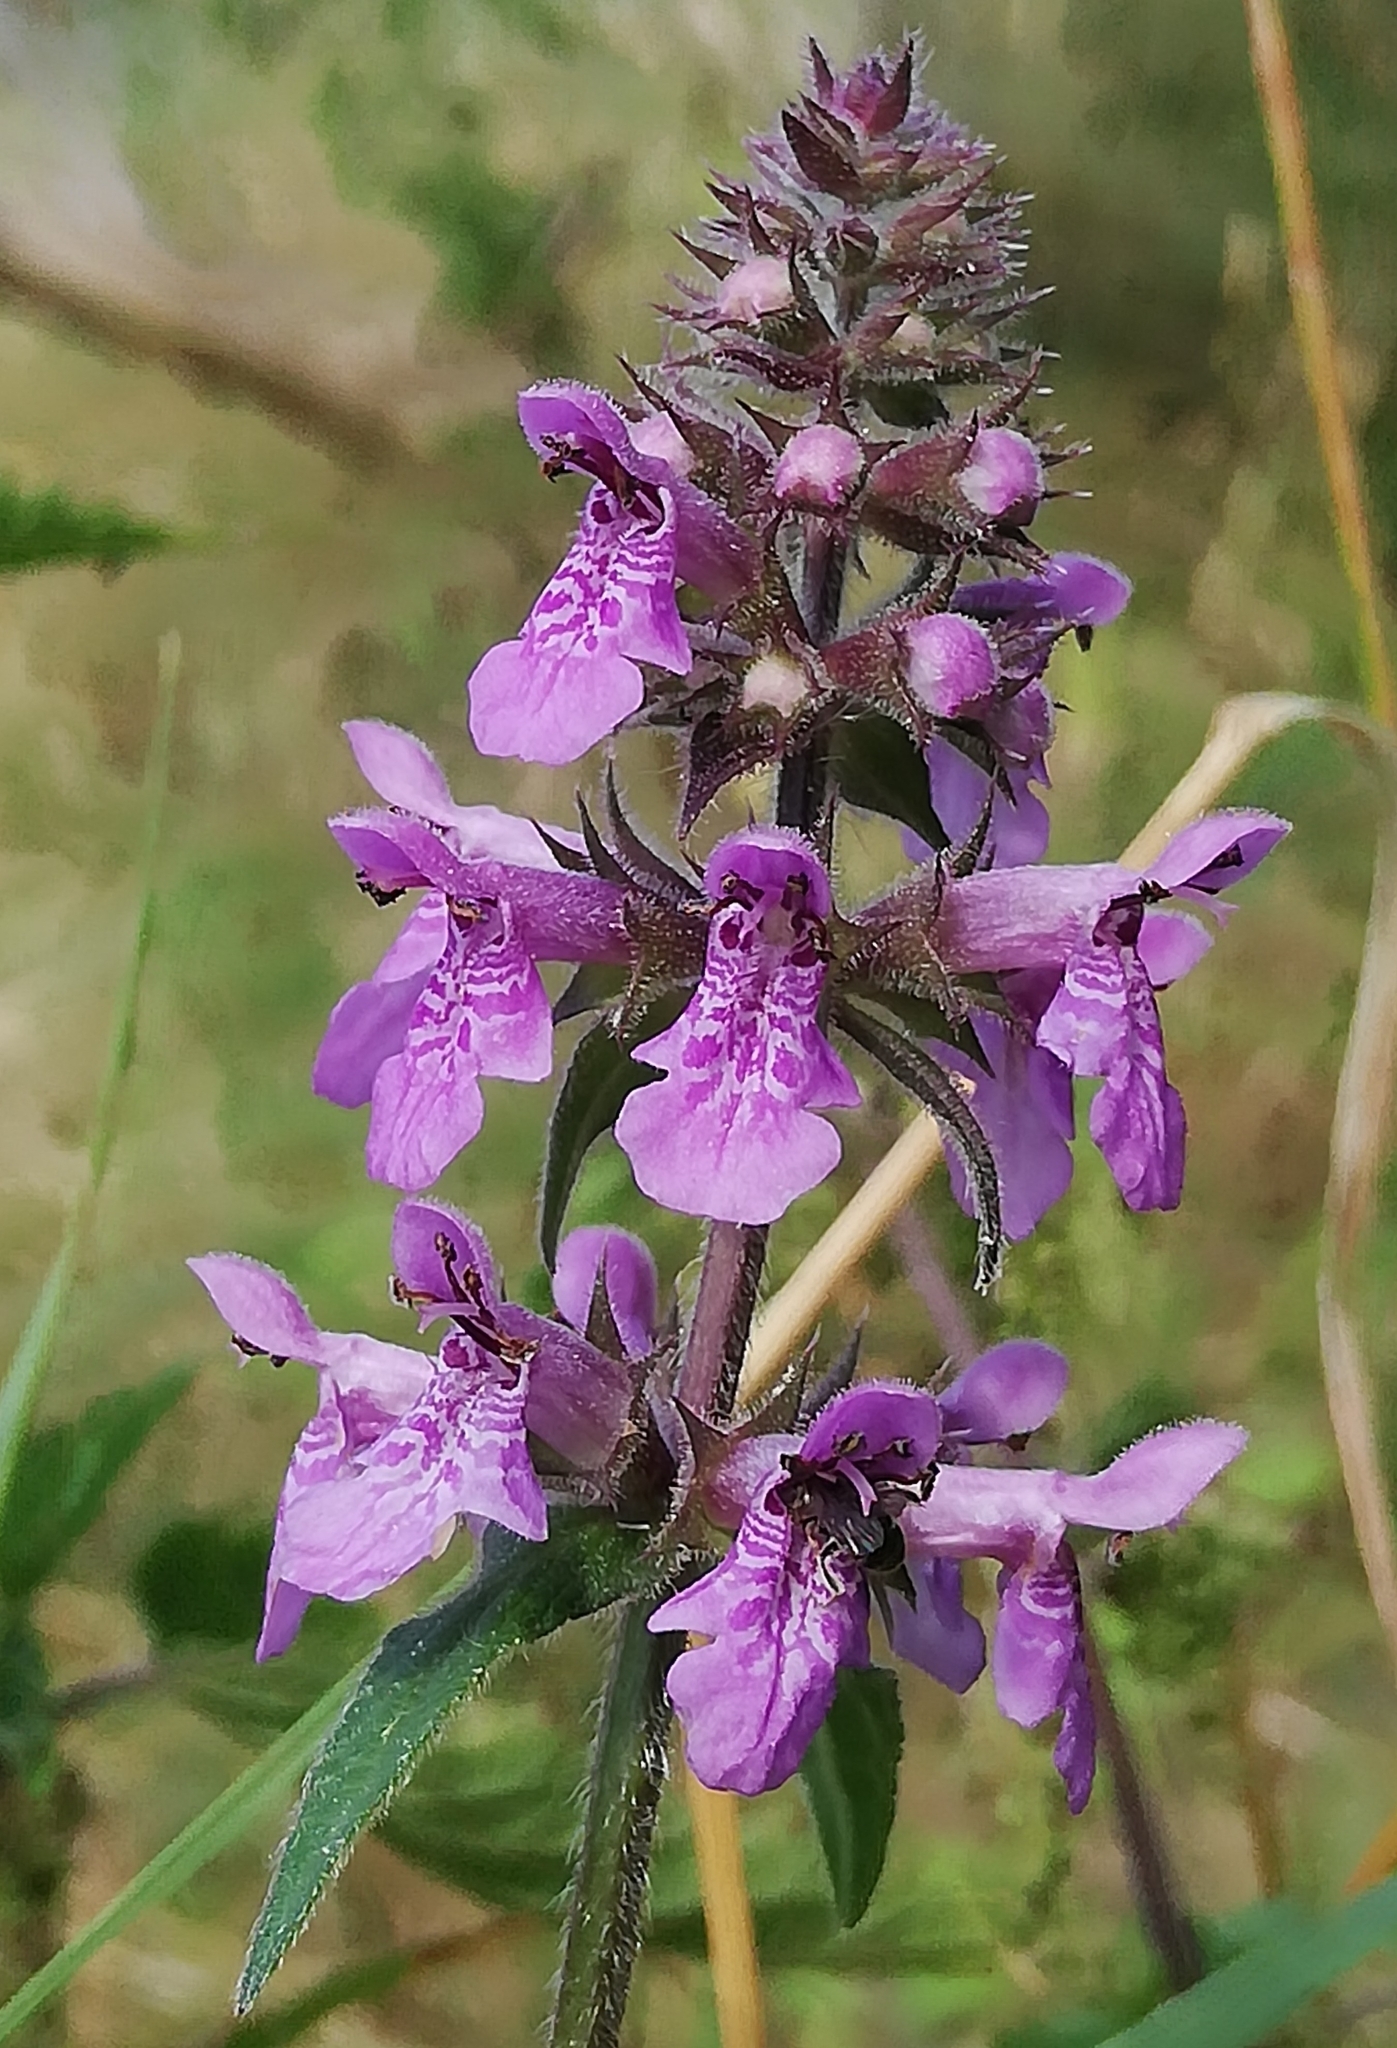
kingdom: Plantae
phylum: Tracheophyta
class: Magnoliopsida
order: Lamiales
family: Lamiaceae
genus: Stachys
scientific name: Stachys palustris
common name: Marsh woundwort
